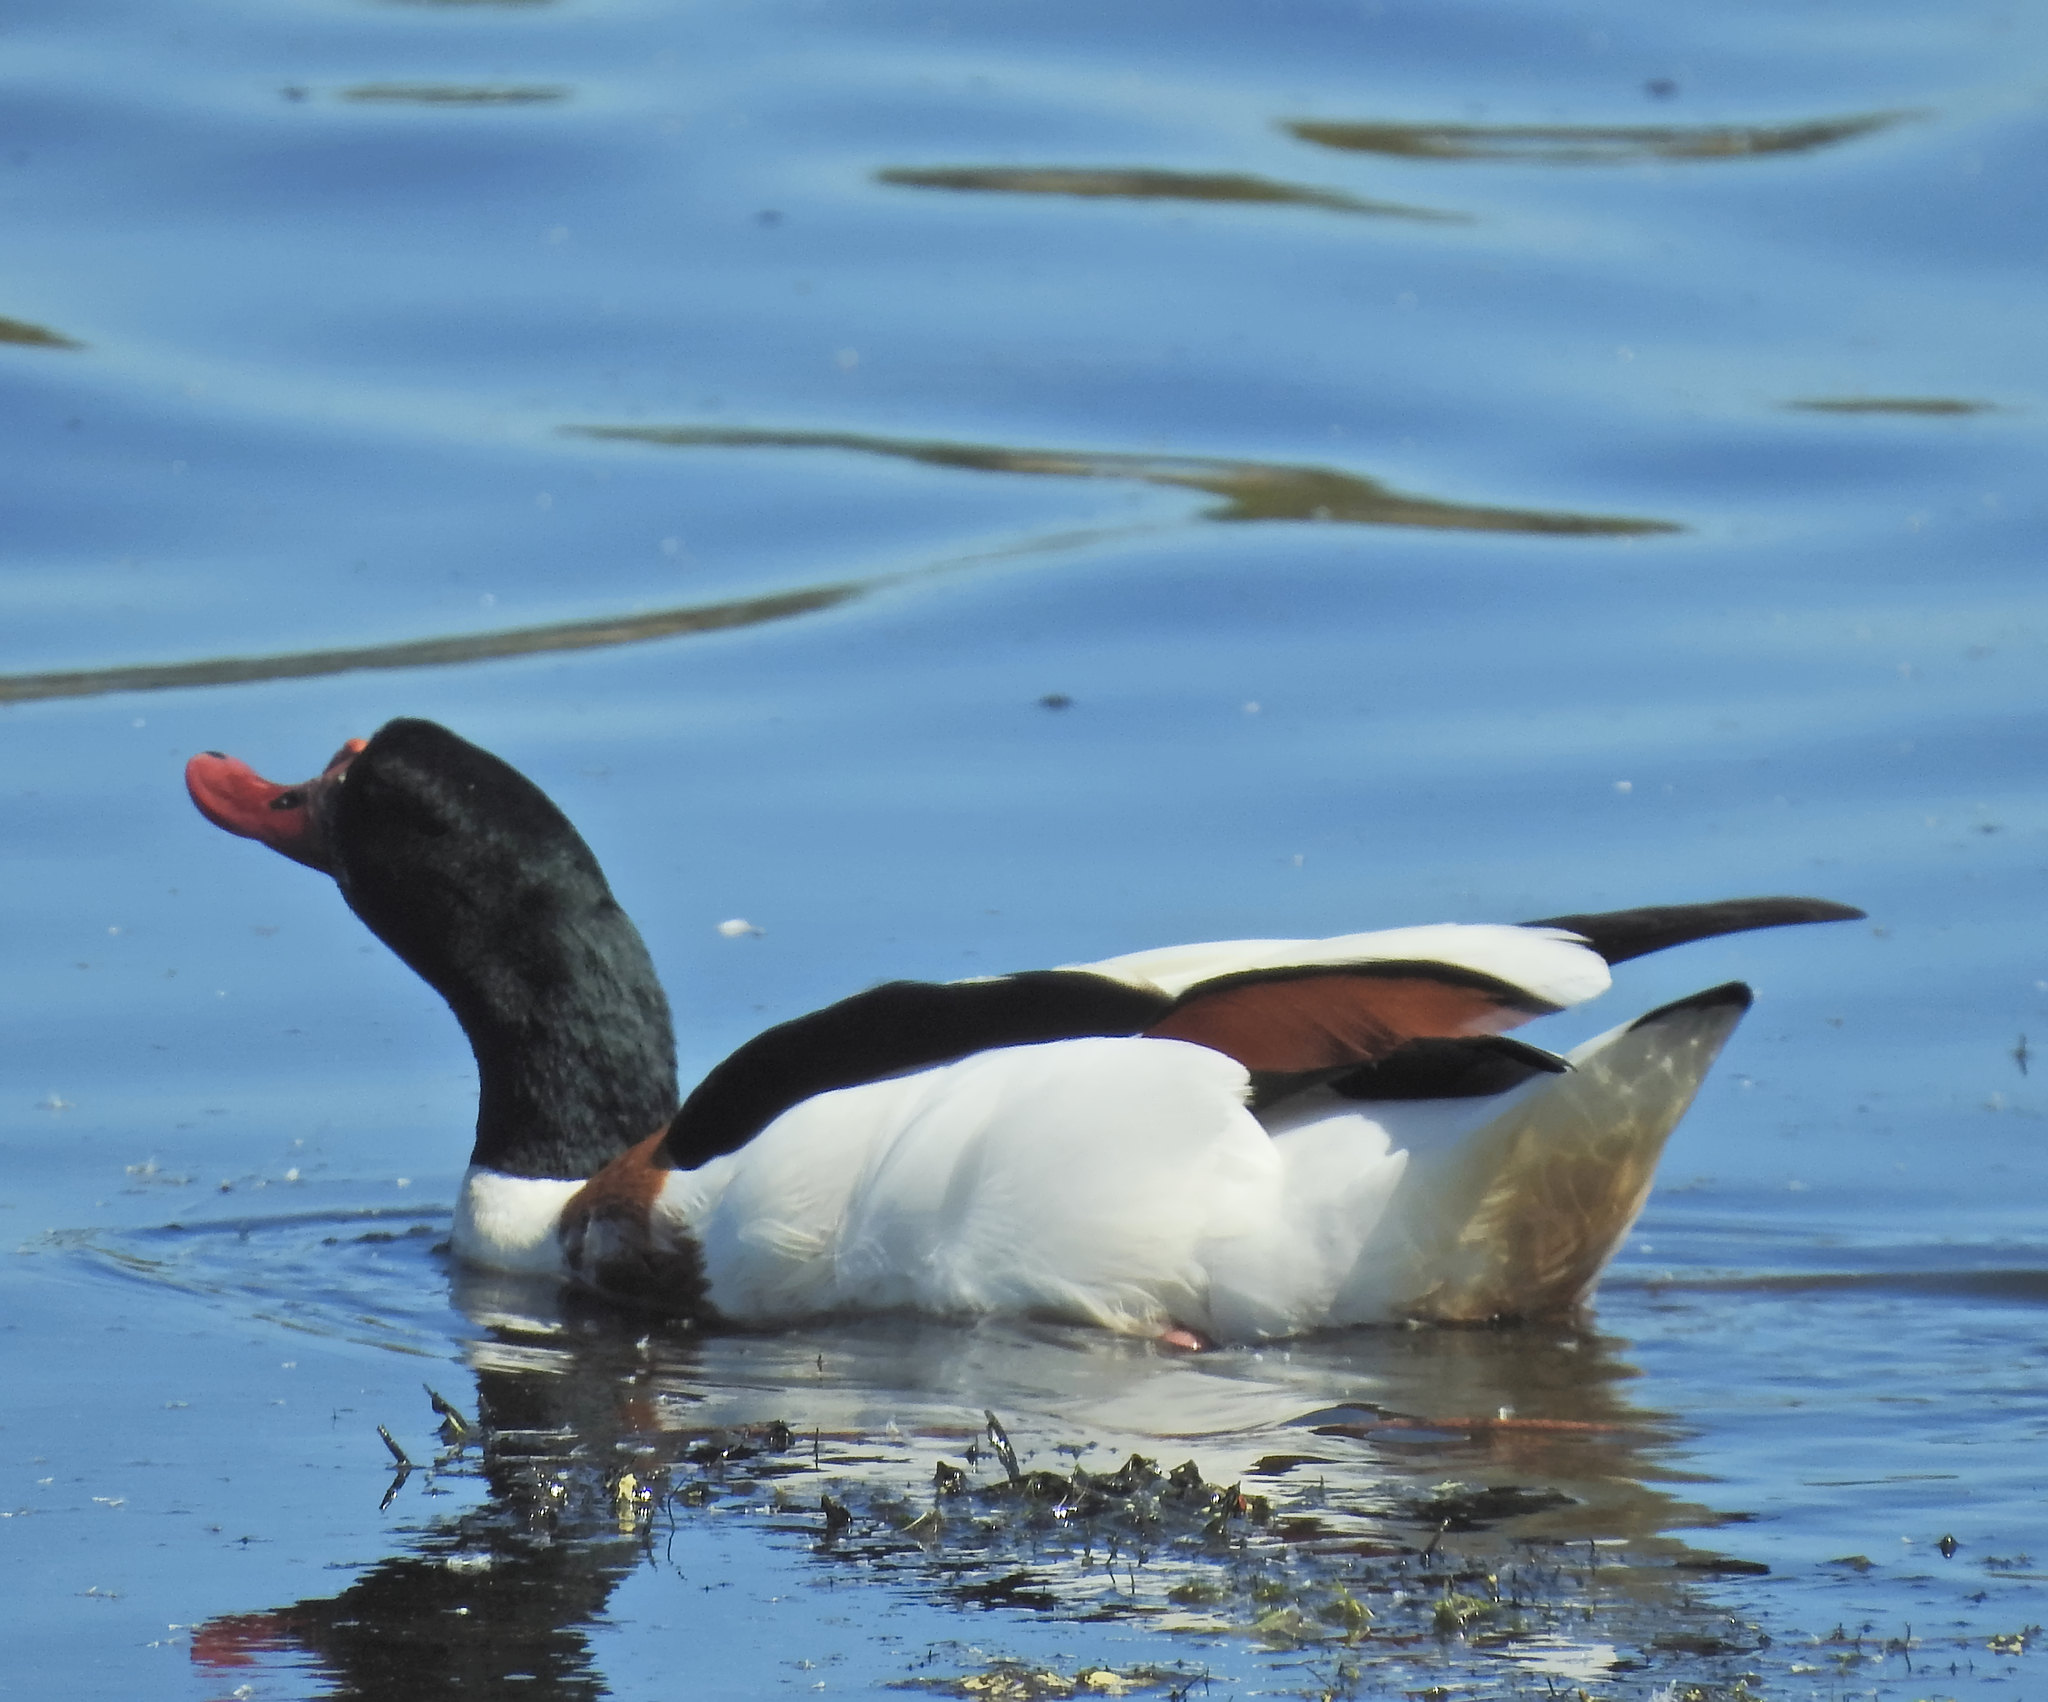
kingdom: Animalia
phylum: Chordata
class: Aves
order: Anseriformes
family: Anatidae
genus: Tadorna
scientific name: Tadorna tadorna
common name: Common shelduck
